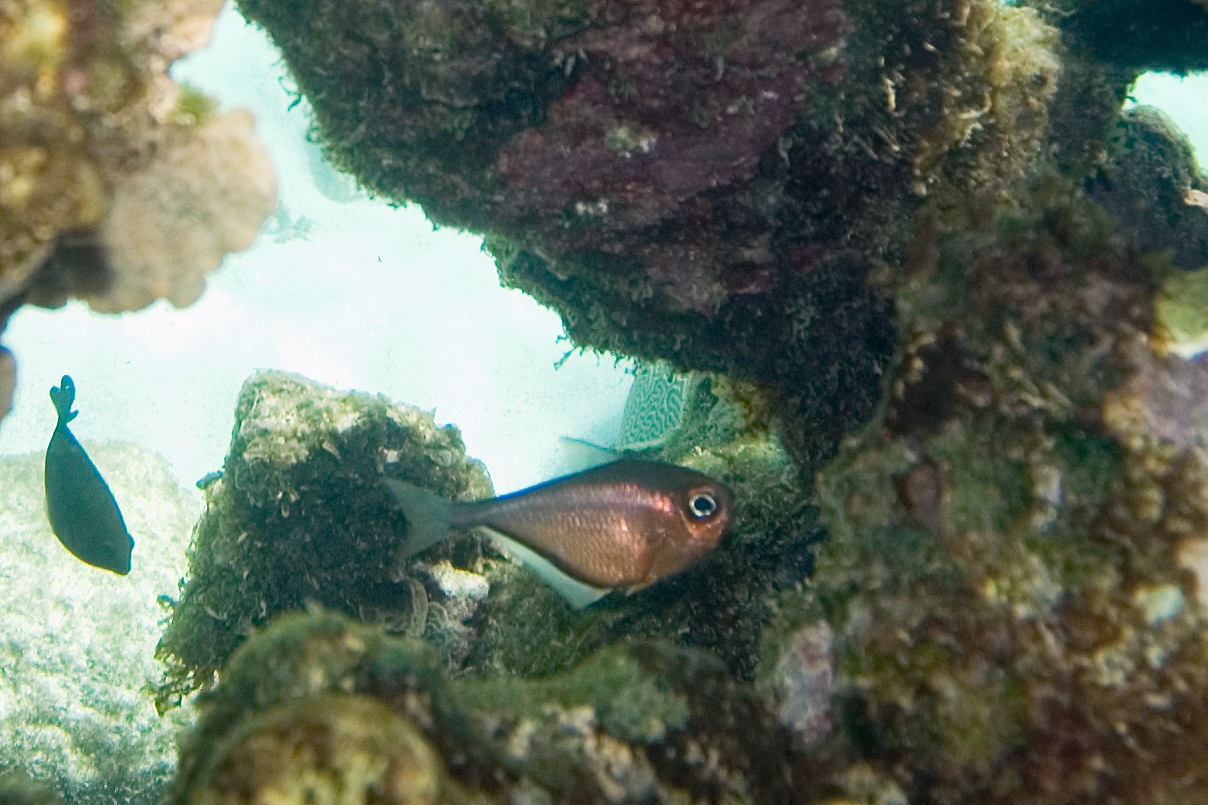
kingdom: Animalia
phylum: Chordata
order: Perciformes
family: Pempheridae
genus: Pempheris
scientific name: Pempheris schomburgkii
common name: Glassy sweeper
